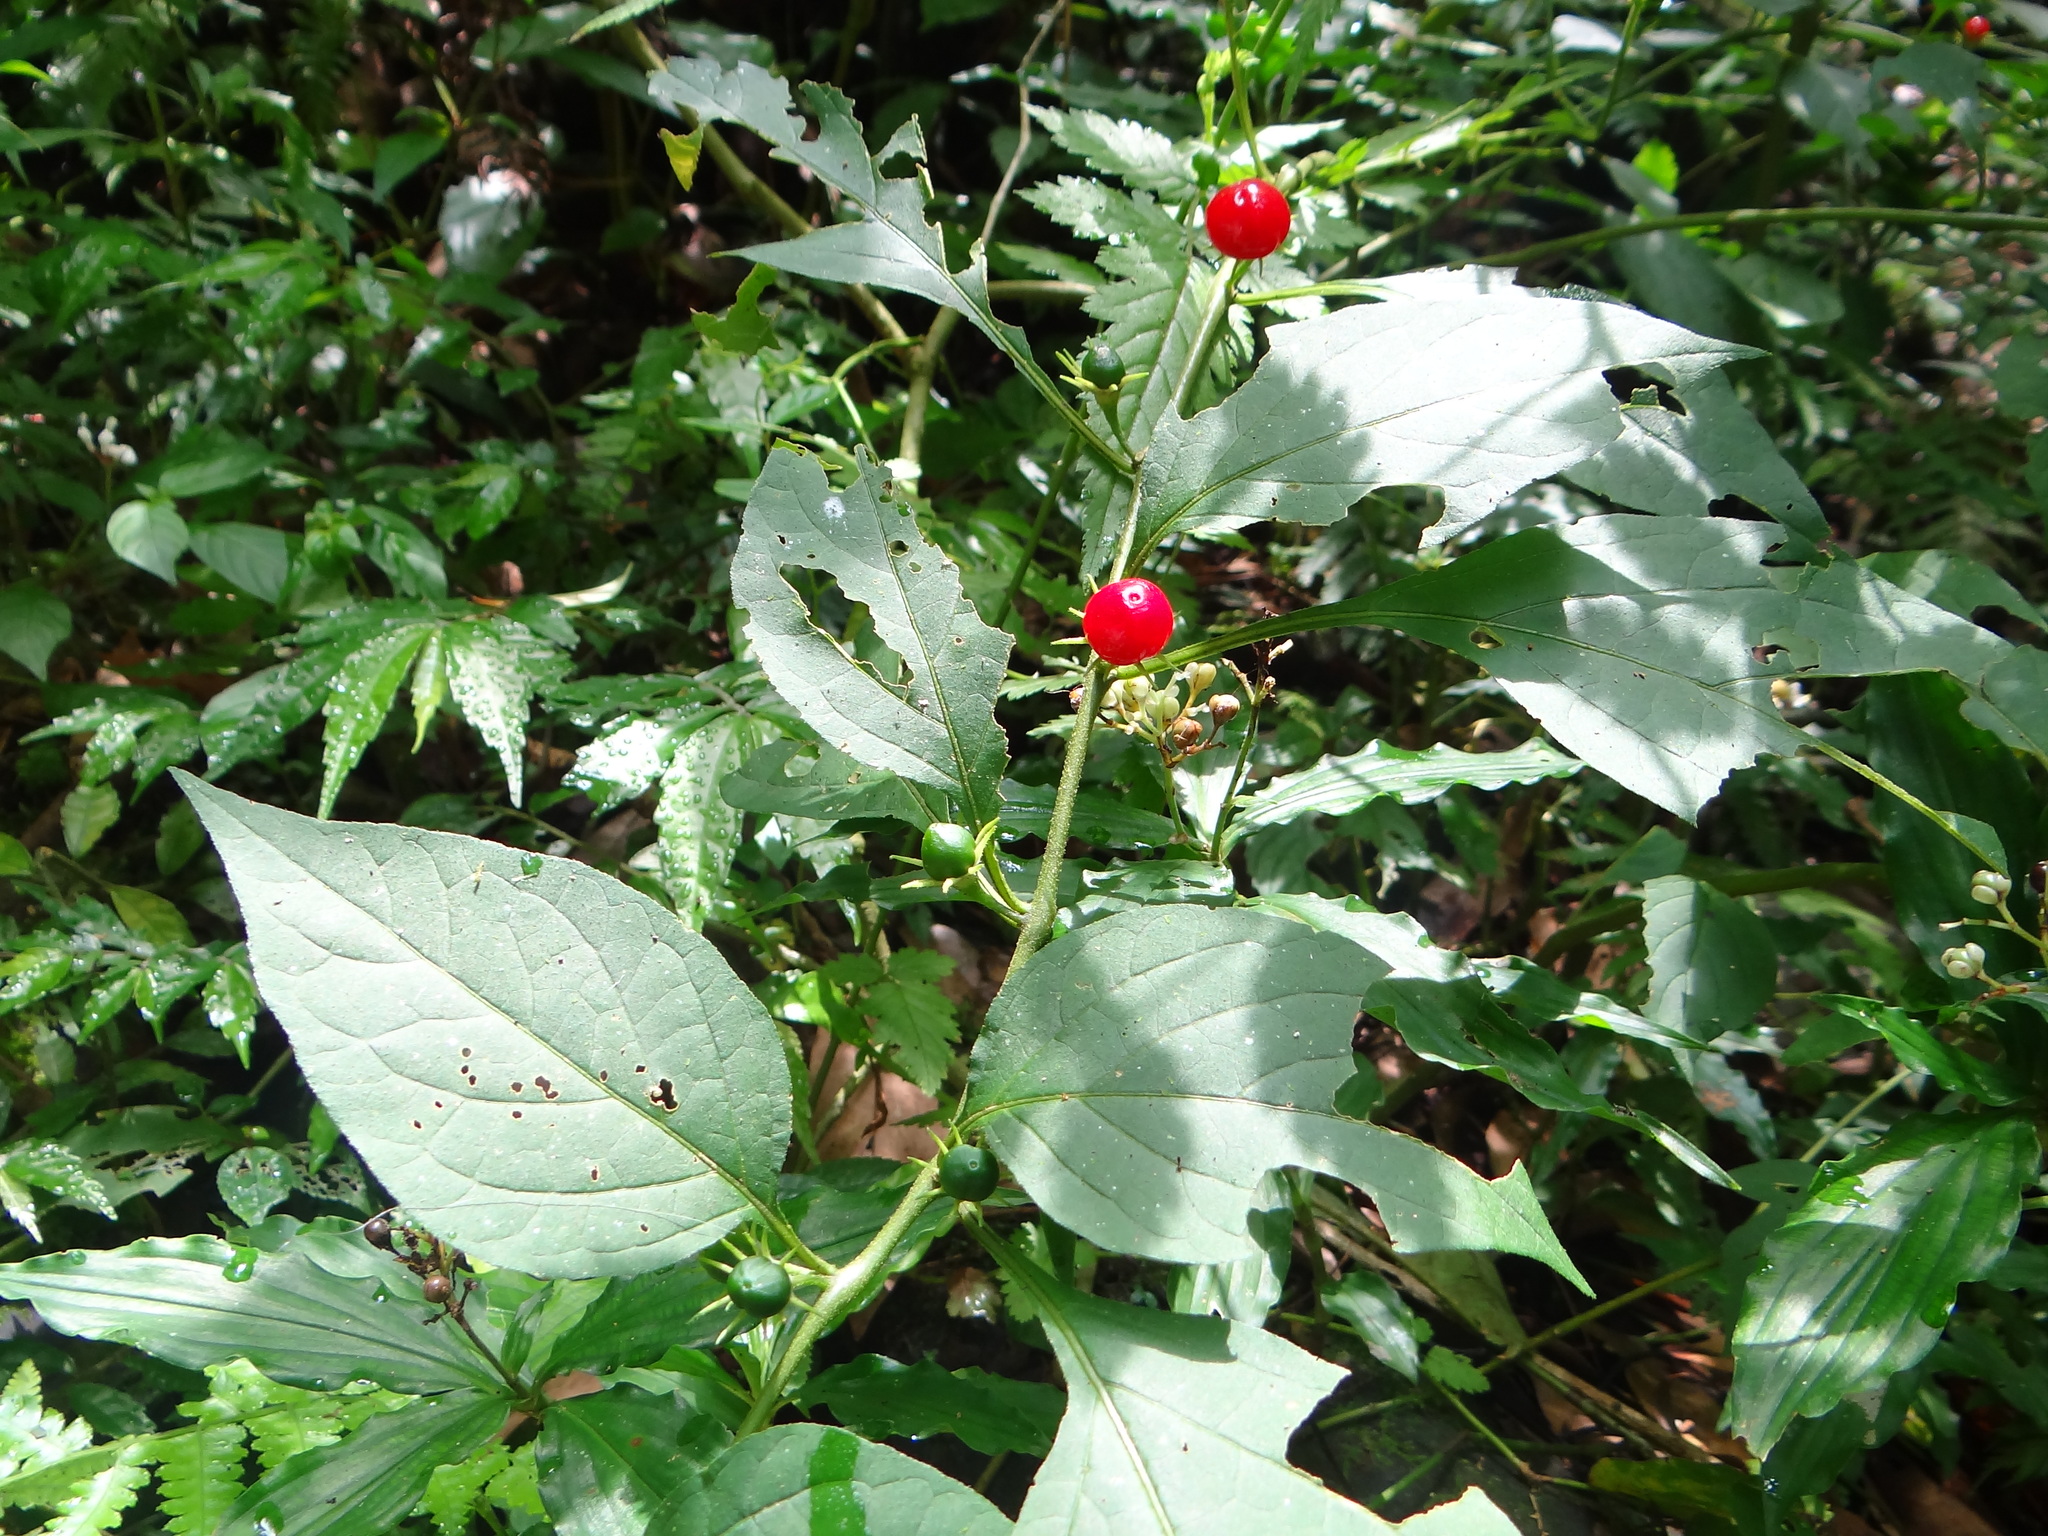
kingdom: Plantae
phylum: Tracheophyta
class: Magnoliopsida
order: Solanales
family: Solanaceae
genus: Lycianthes
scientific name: Lycianthes biflora
